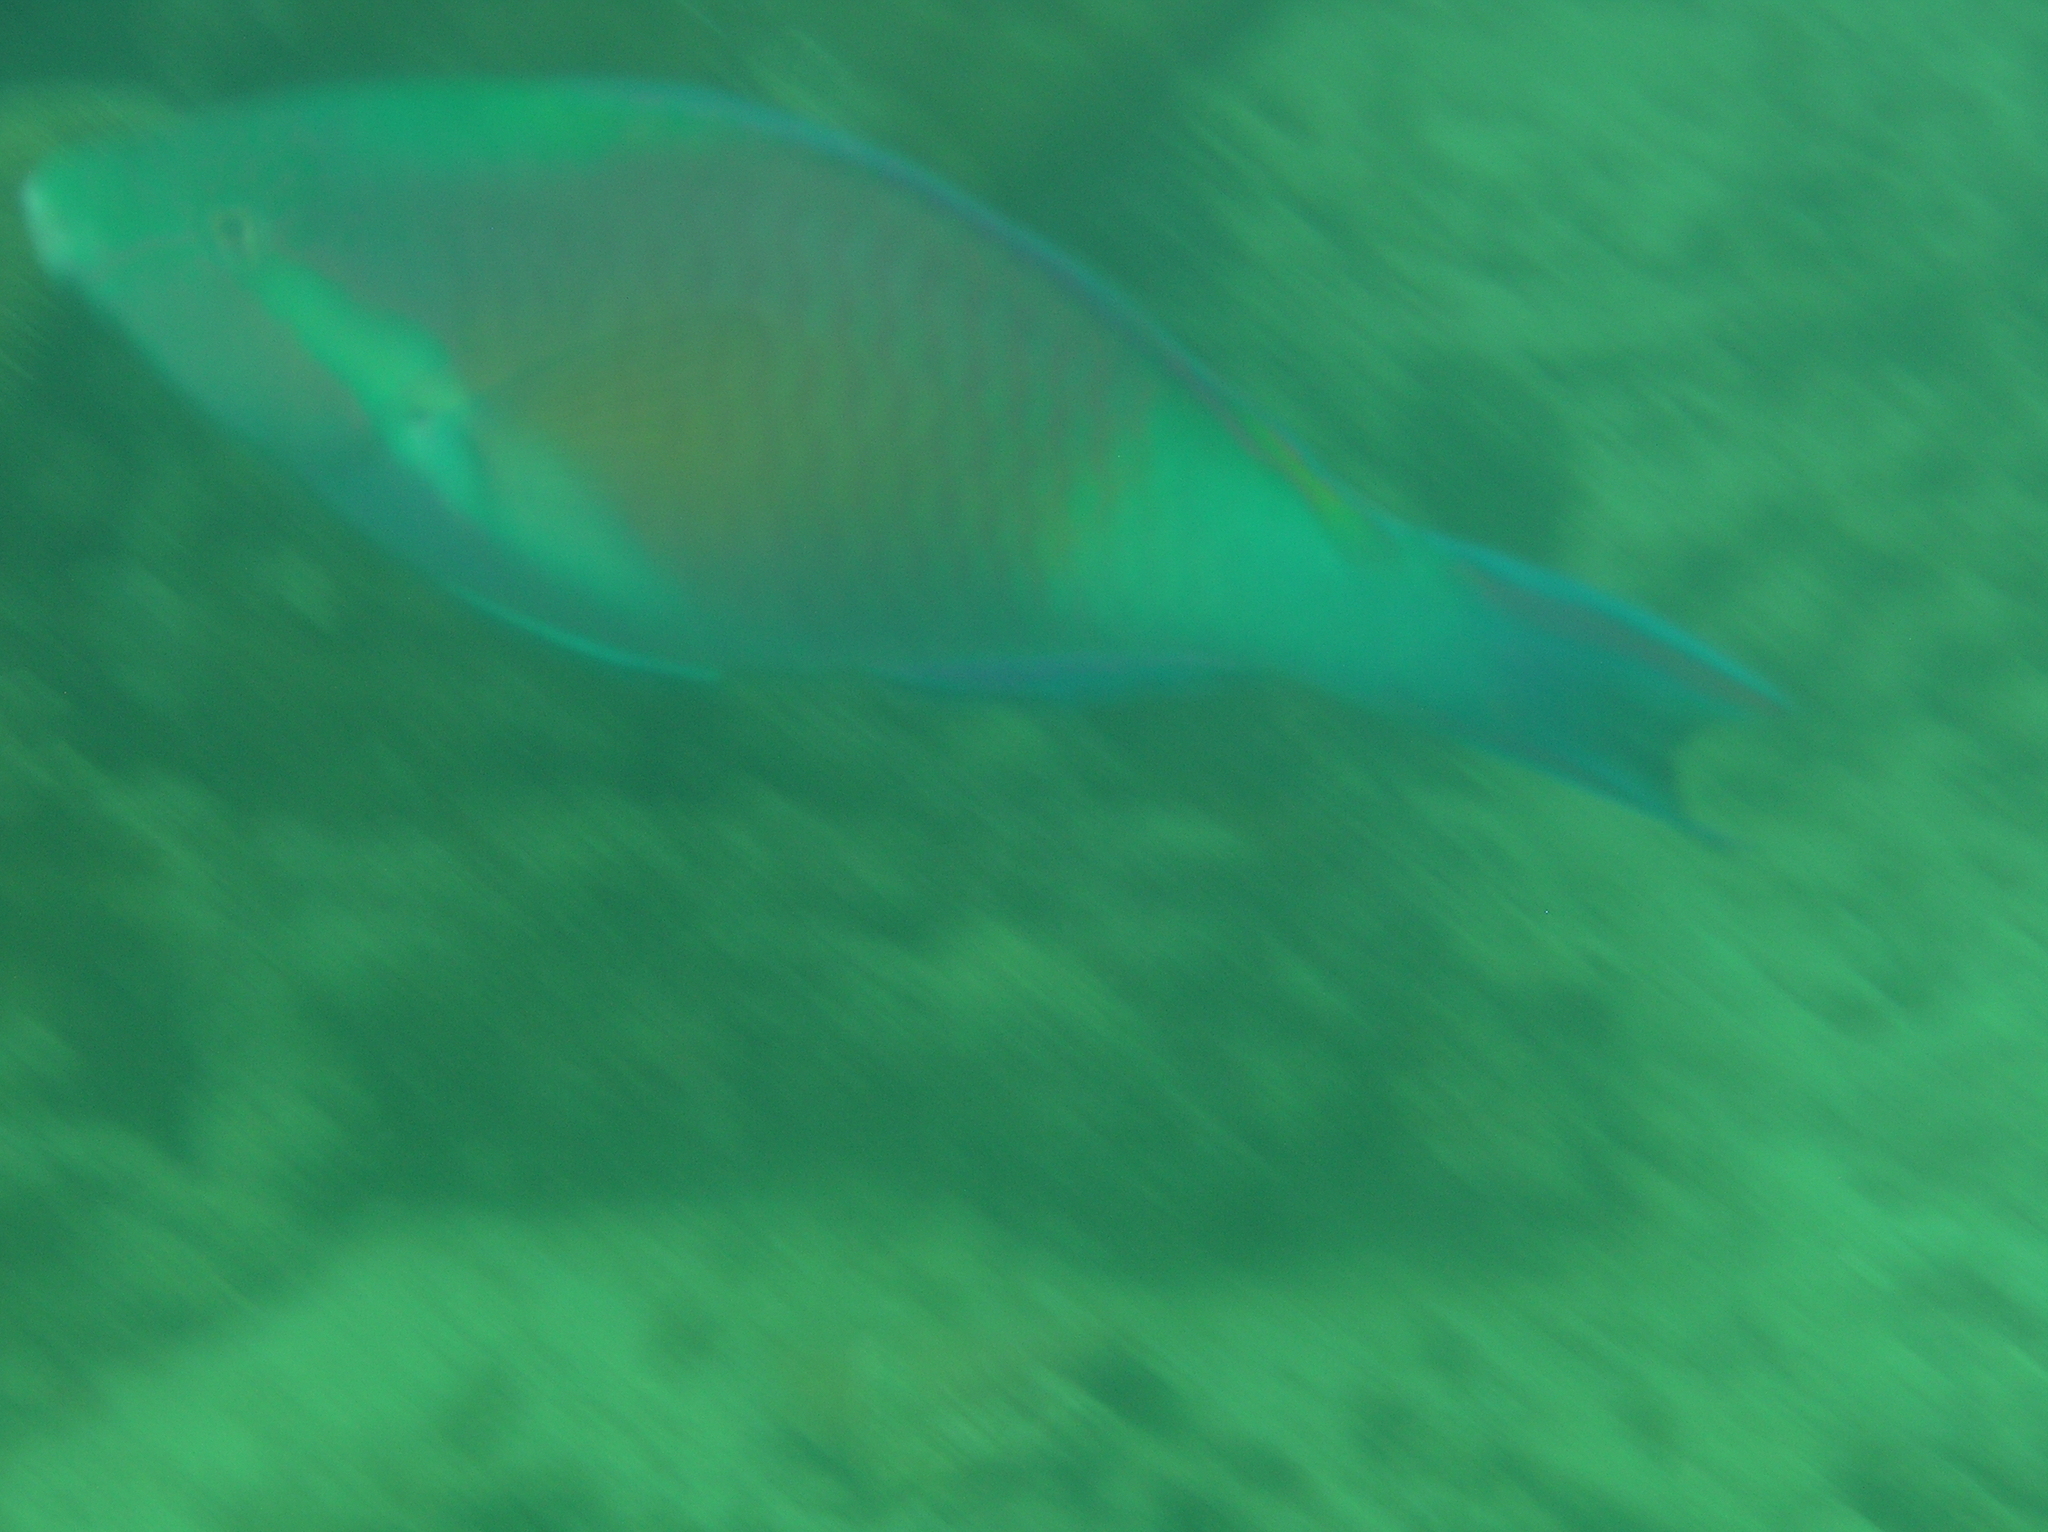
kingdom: Animalia
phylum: Chordata
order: Perciformes
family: Scaridae
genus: Scarus
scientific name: Scarus hypselopterus
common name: Java parrotfish
